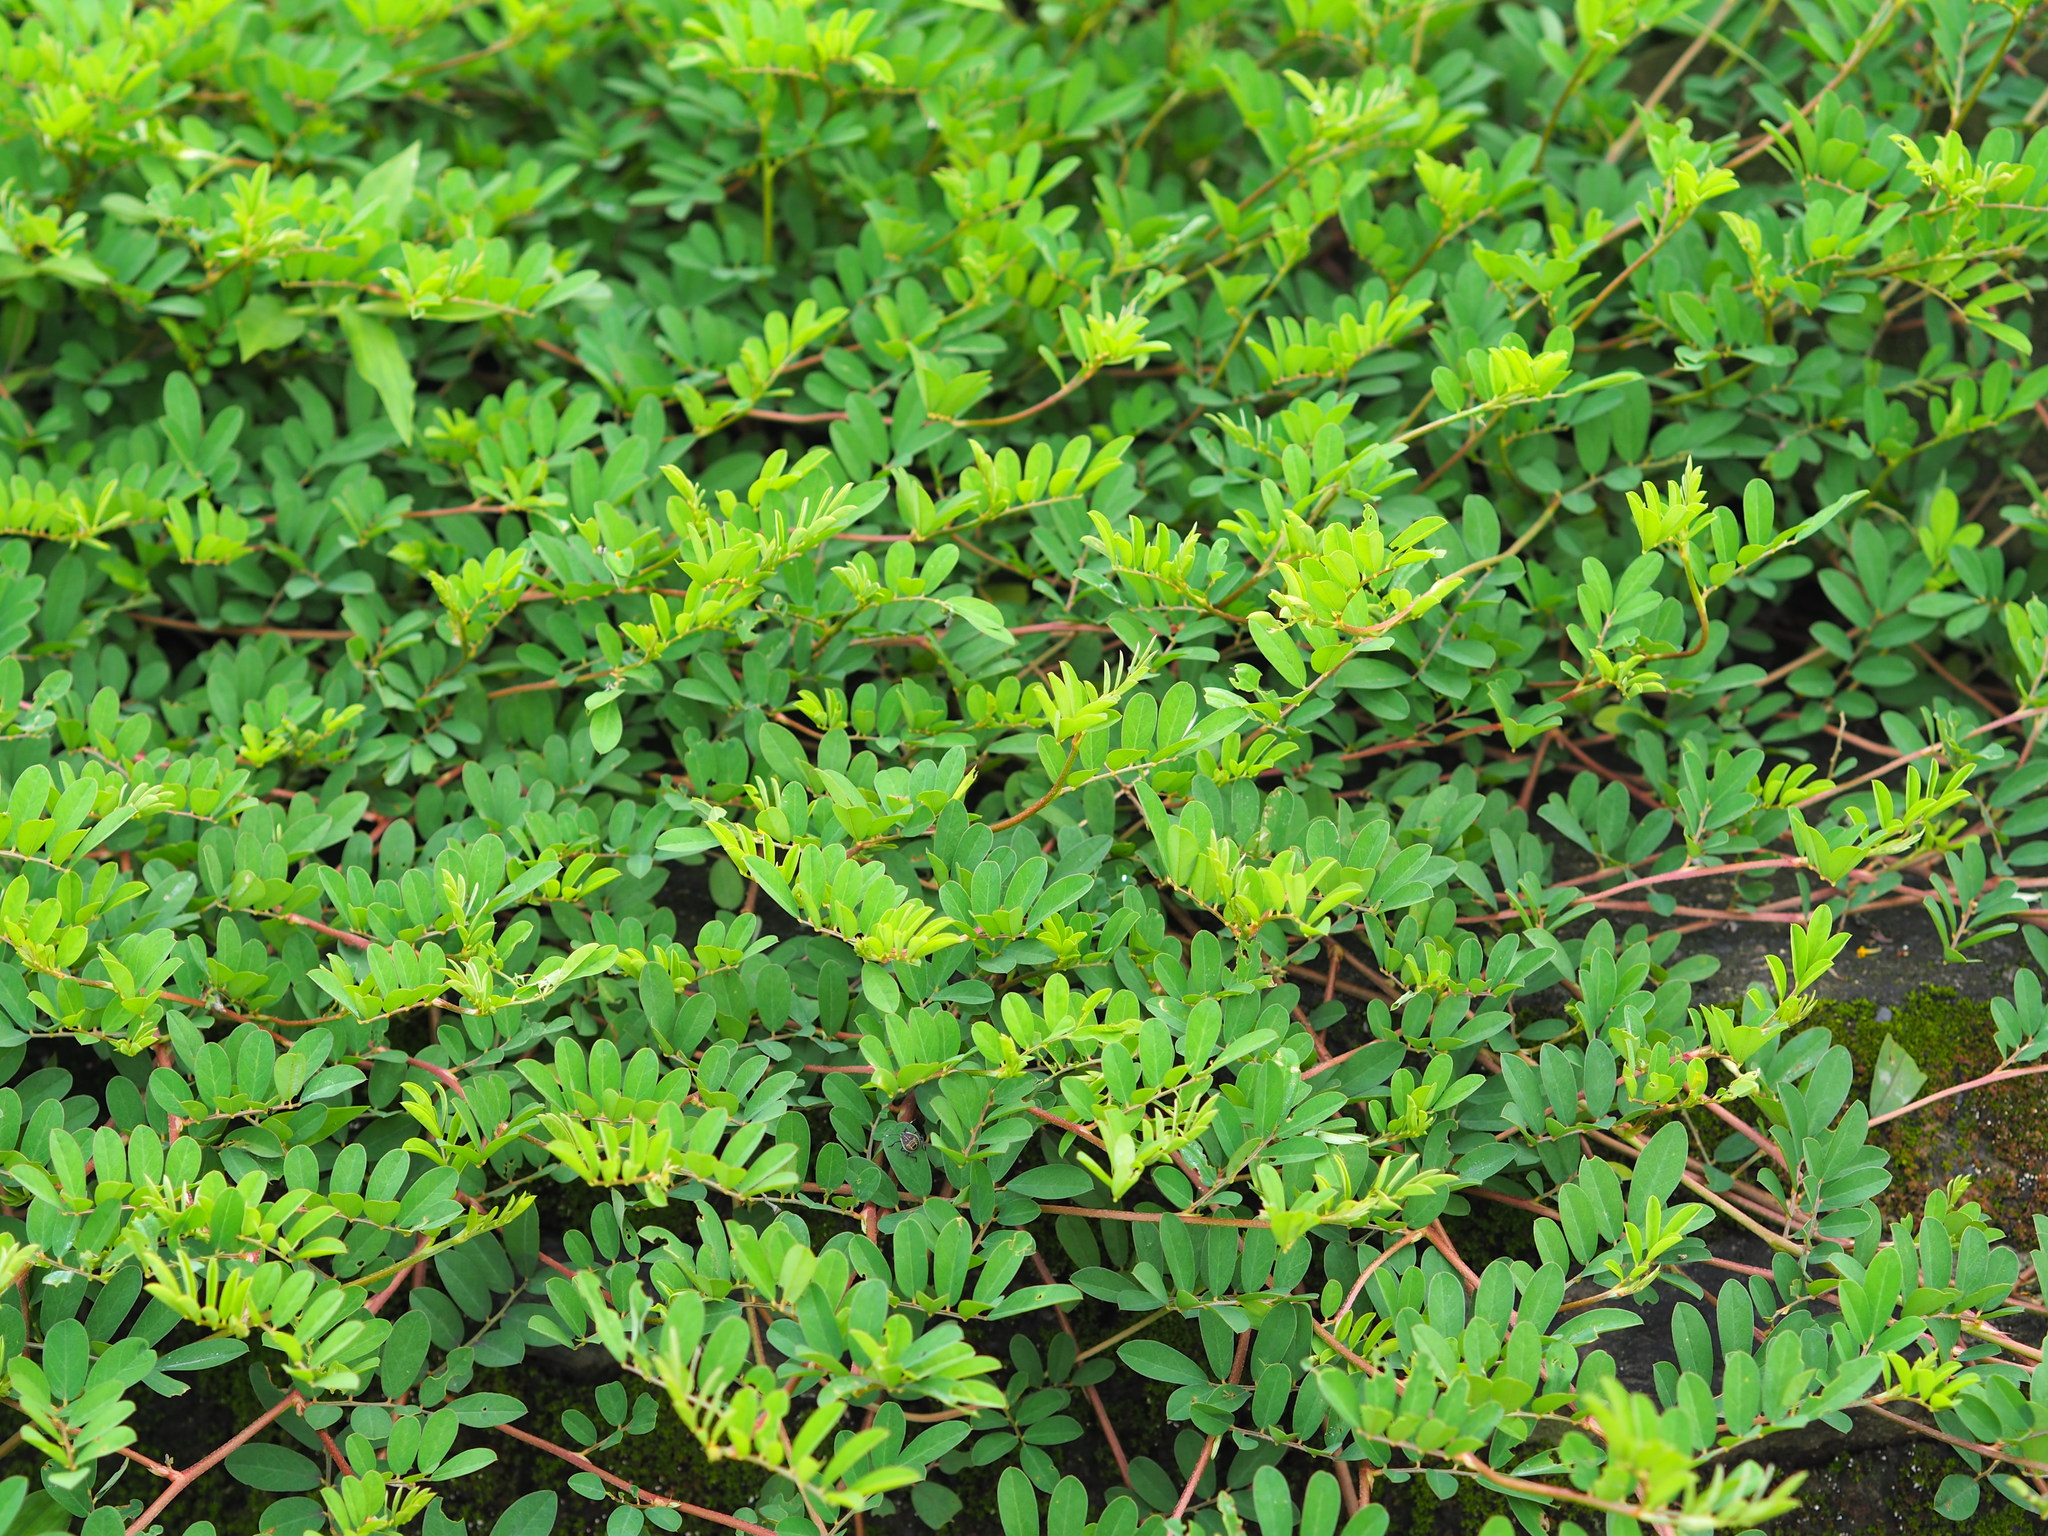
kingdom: Plantae
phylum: Tracheophyta
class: Magnoliopsida
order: Fabales
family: Fabaceae
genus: Indigofera
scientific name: Indigofera hendecaphylla
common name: Trailing indigo
